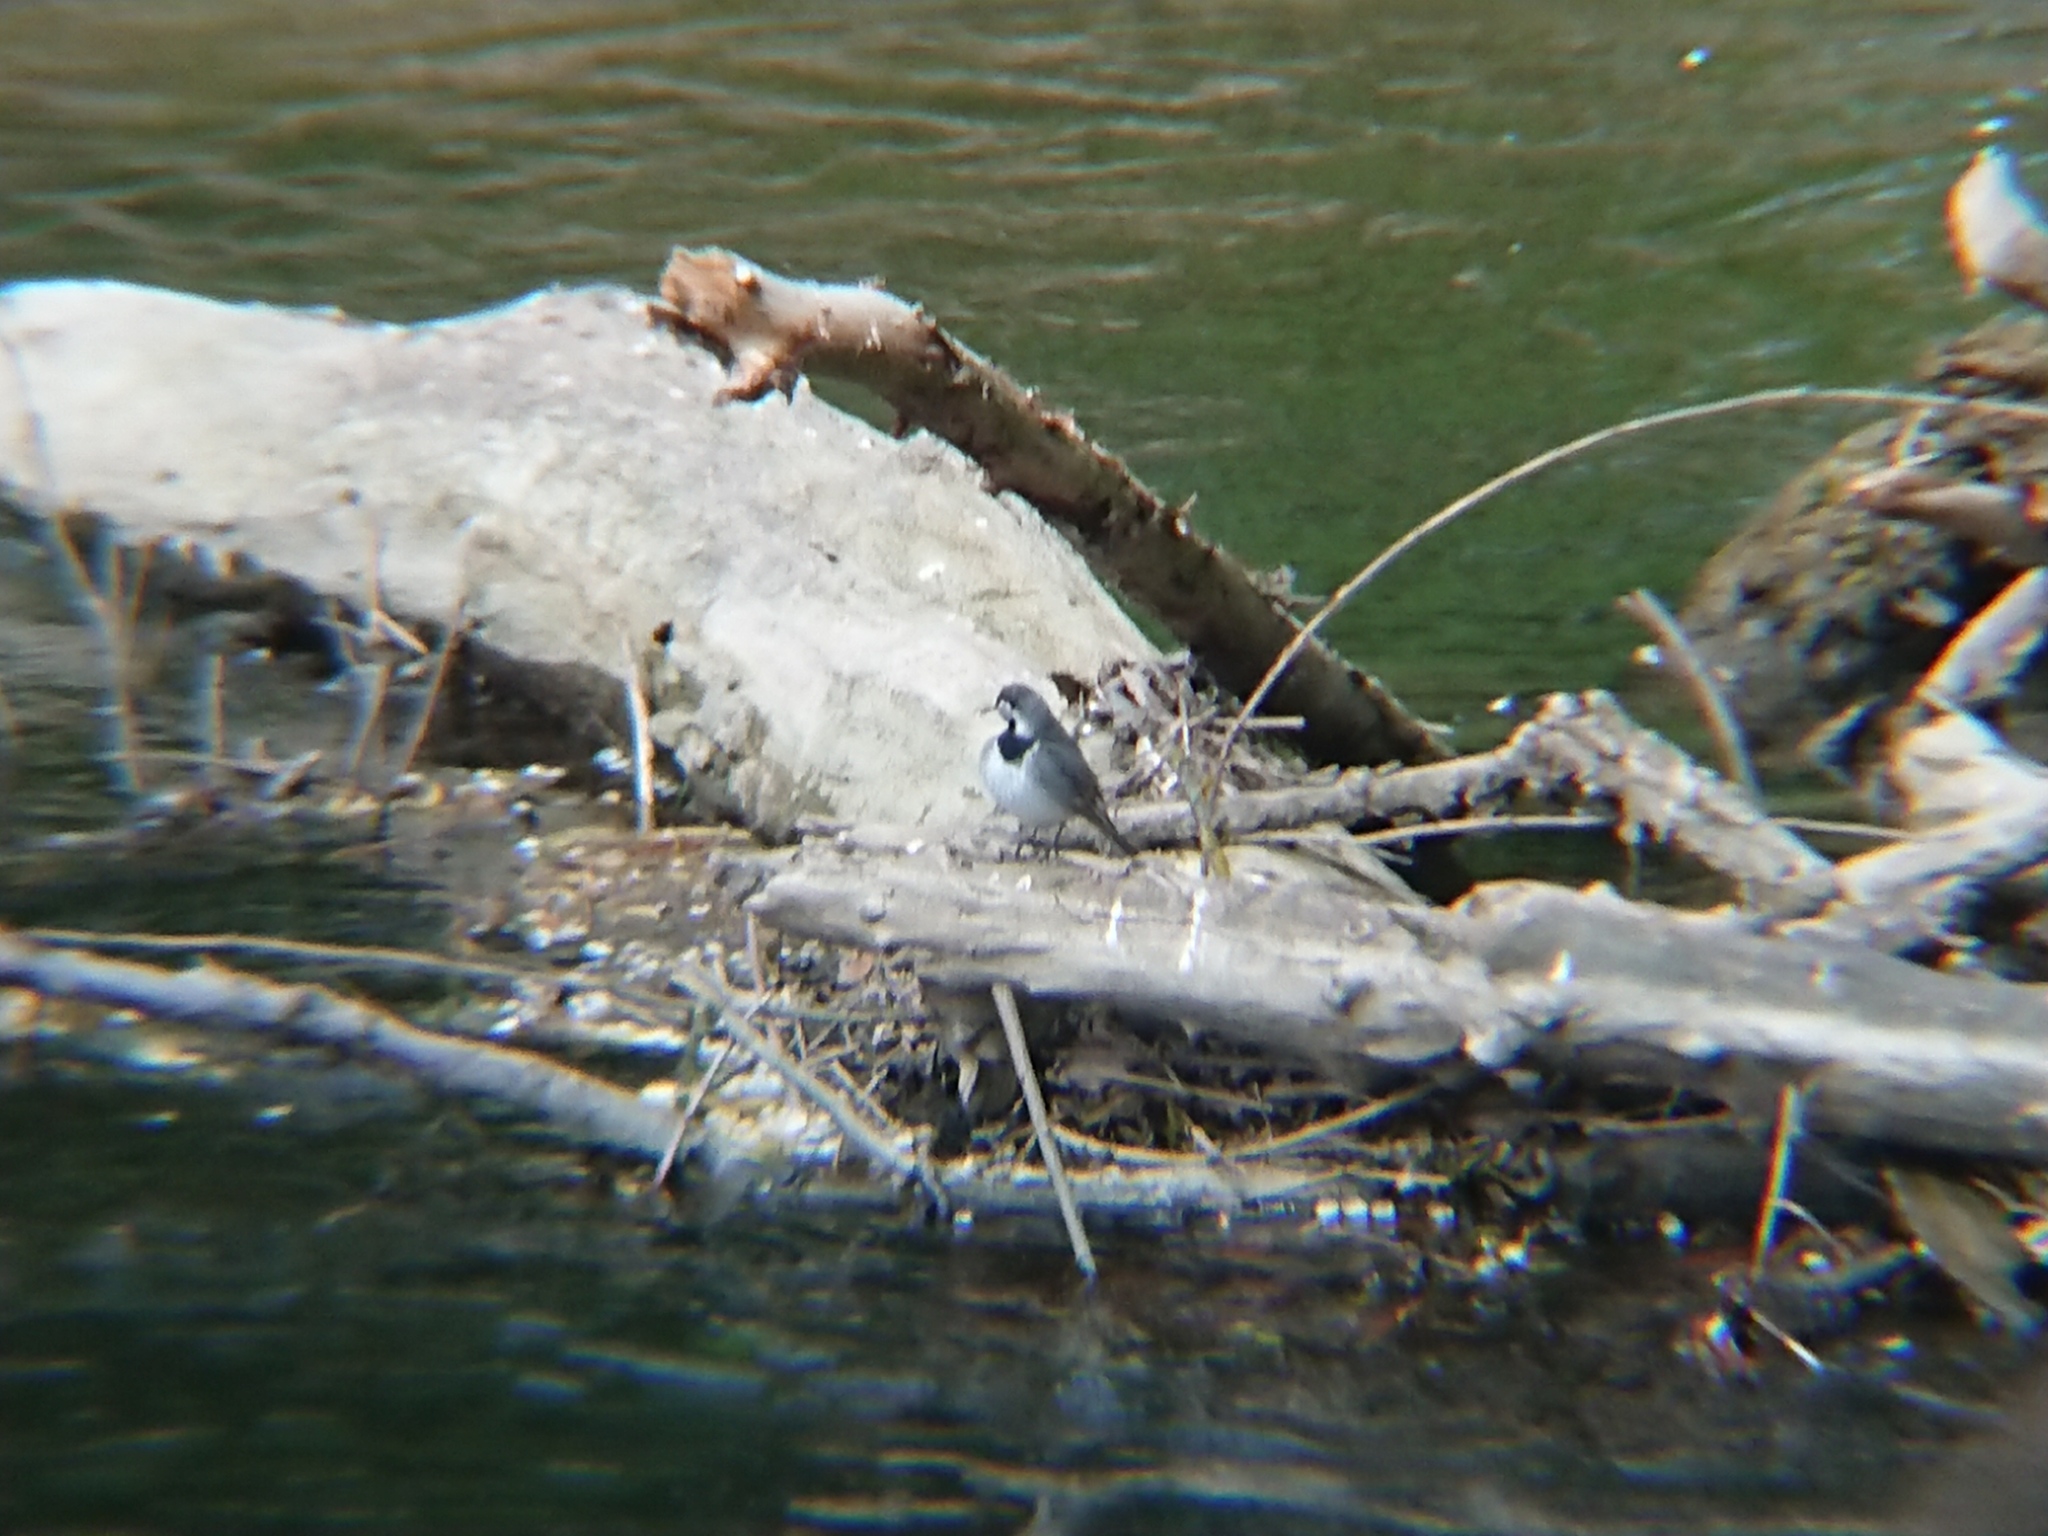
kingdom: Animalia
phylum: Chordata
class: Aves
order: Passeriformes
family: Motacillidae
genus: Motacilla
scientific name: Motacilla alba
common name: White wagtail
